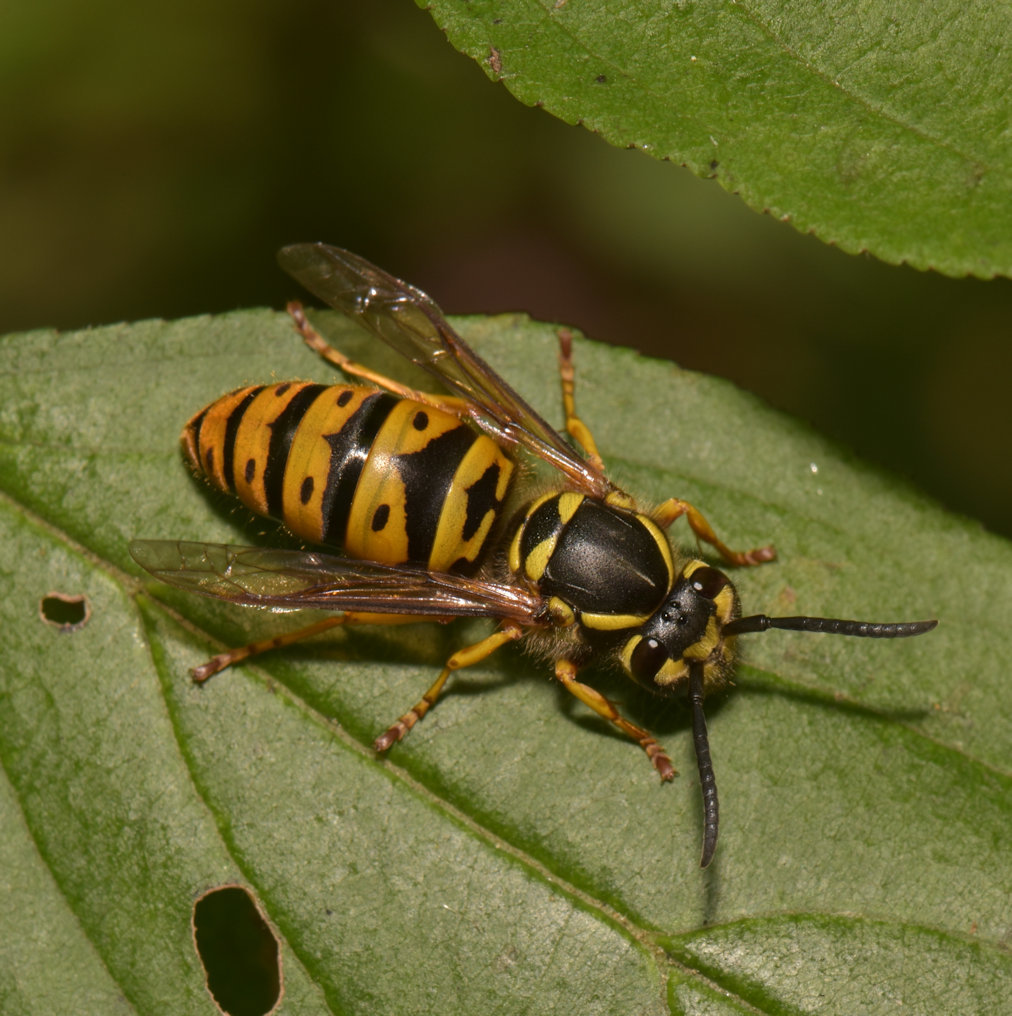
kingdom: Animalia
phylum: Arthropoda
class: Insecta
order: Hymenoptera
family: Vespidae
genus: Vespula
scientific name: Vespula maculifrons
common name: Eastern yellowjacket
